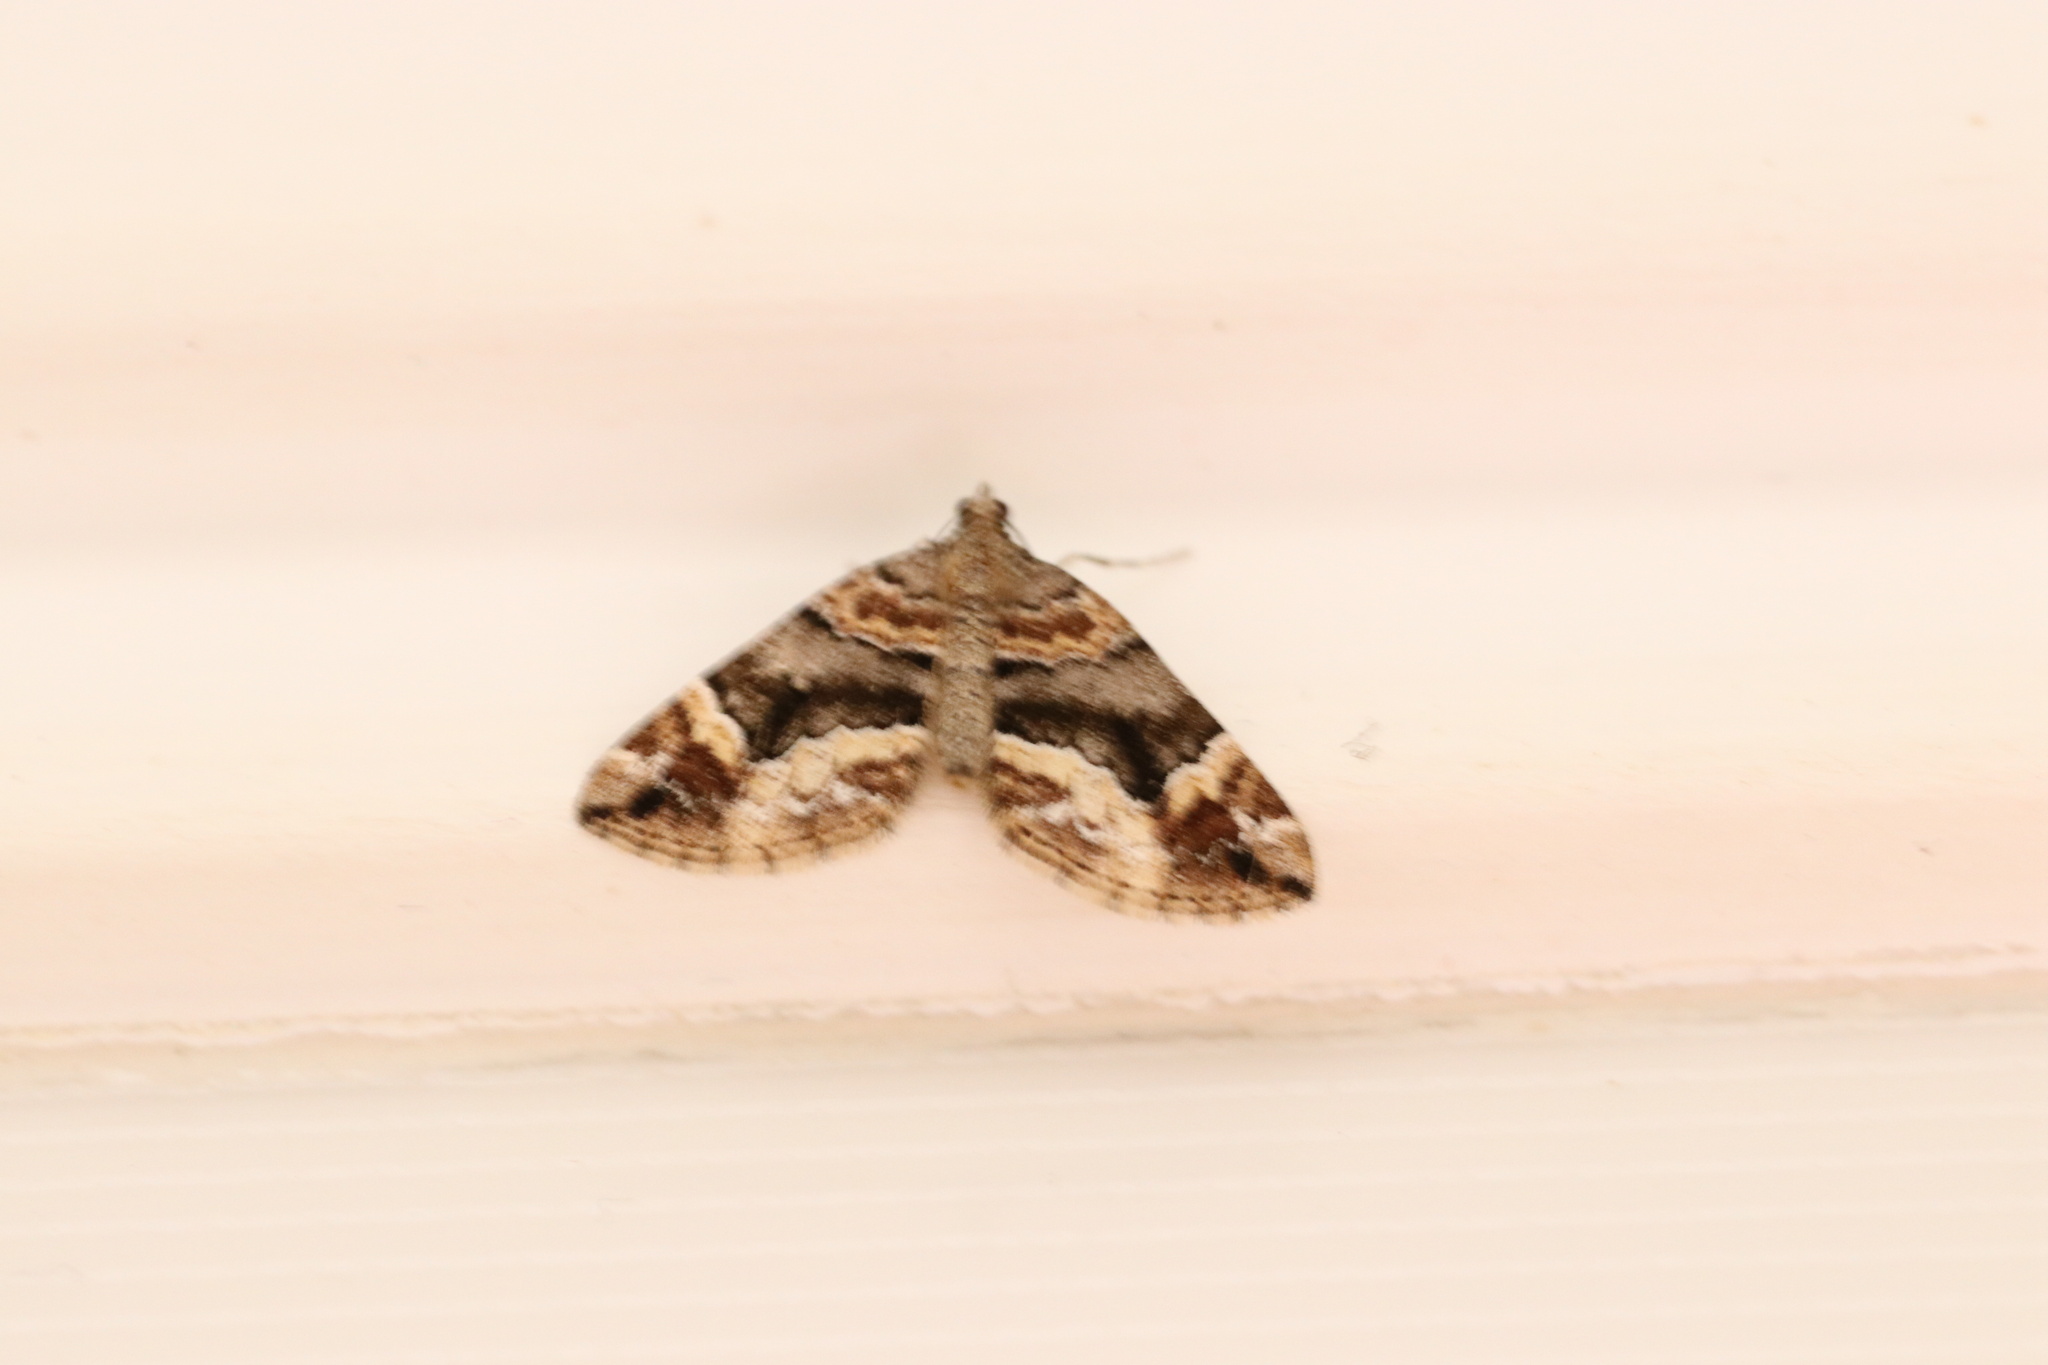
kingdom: Animalia
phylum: Arthropoda
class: Insecta
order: Lepidoptera
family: Geometridae
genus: Lagynopteryx
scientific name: Lagynopteryx botulata
